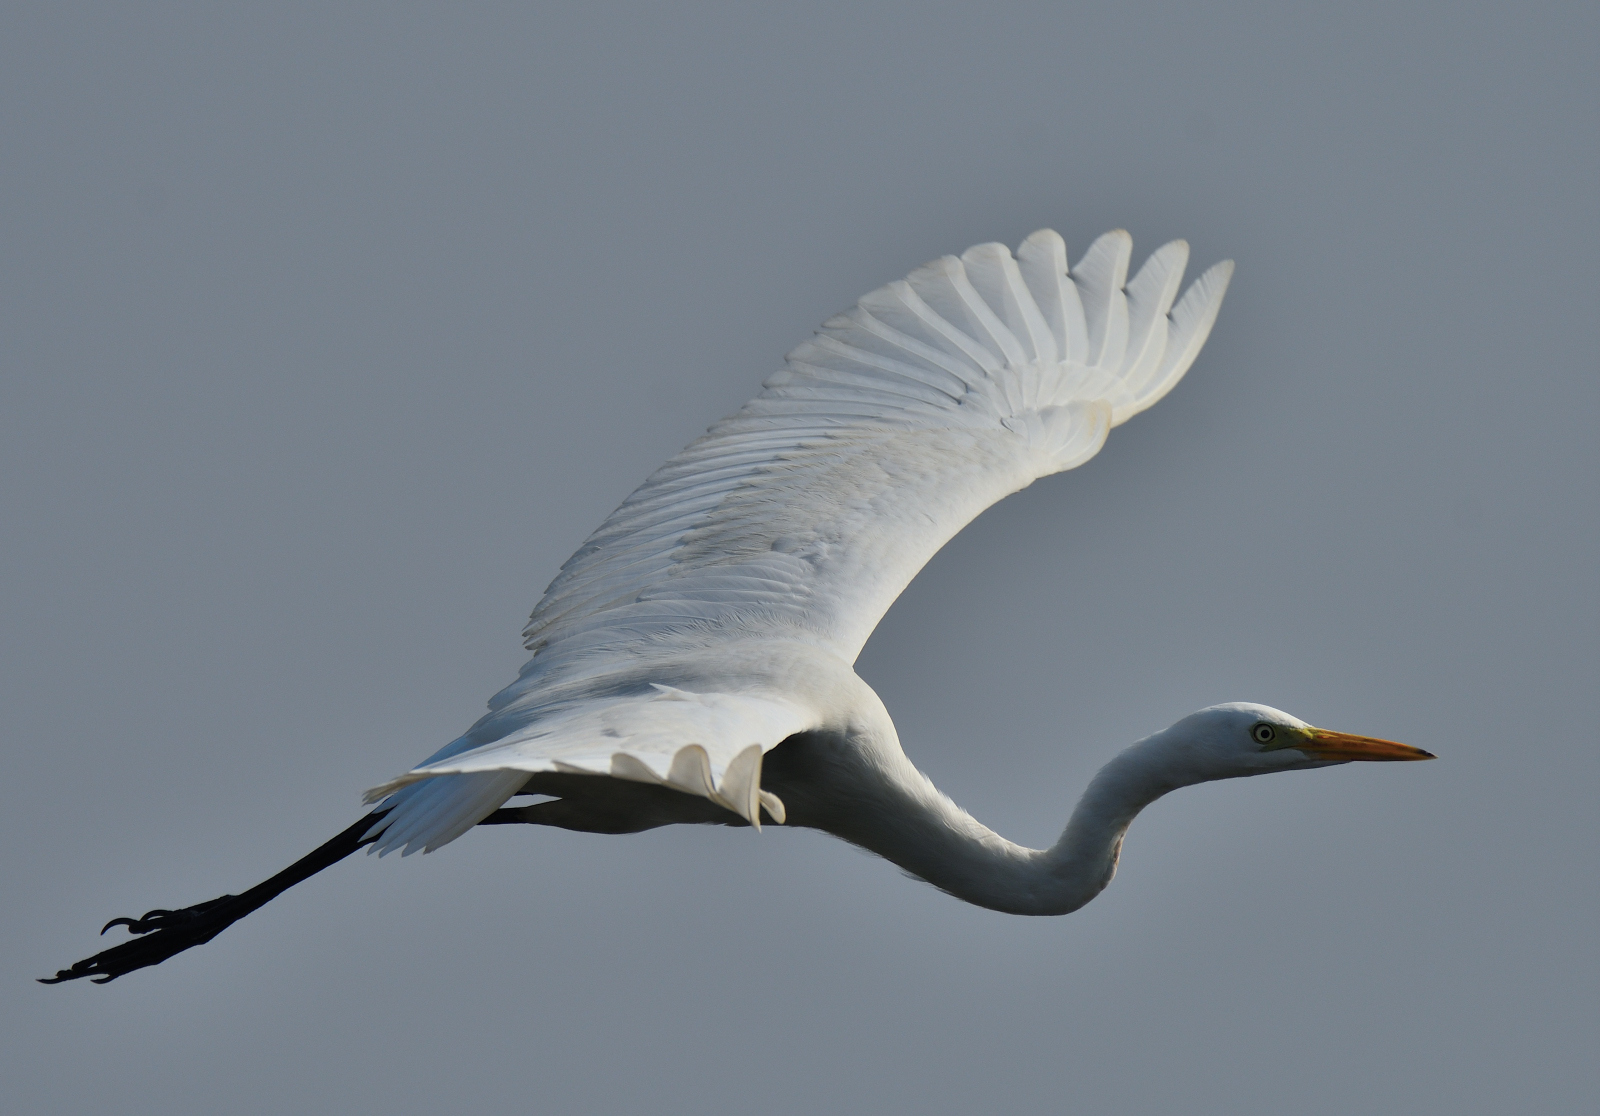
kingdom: Animalia
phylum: Chordata
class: Aves
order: Pelecaniformes
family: Ardeidae
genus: Egretta
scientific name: Egretta intermedia
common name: Intermediate egret
